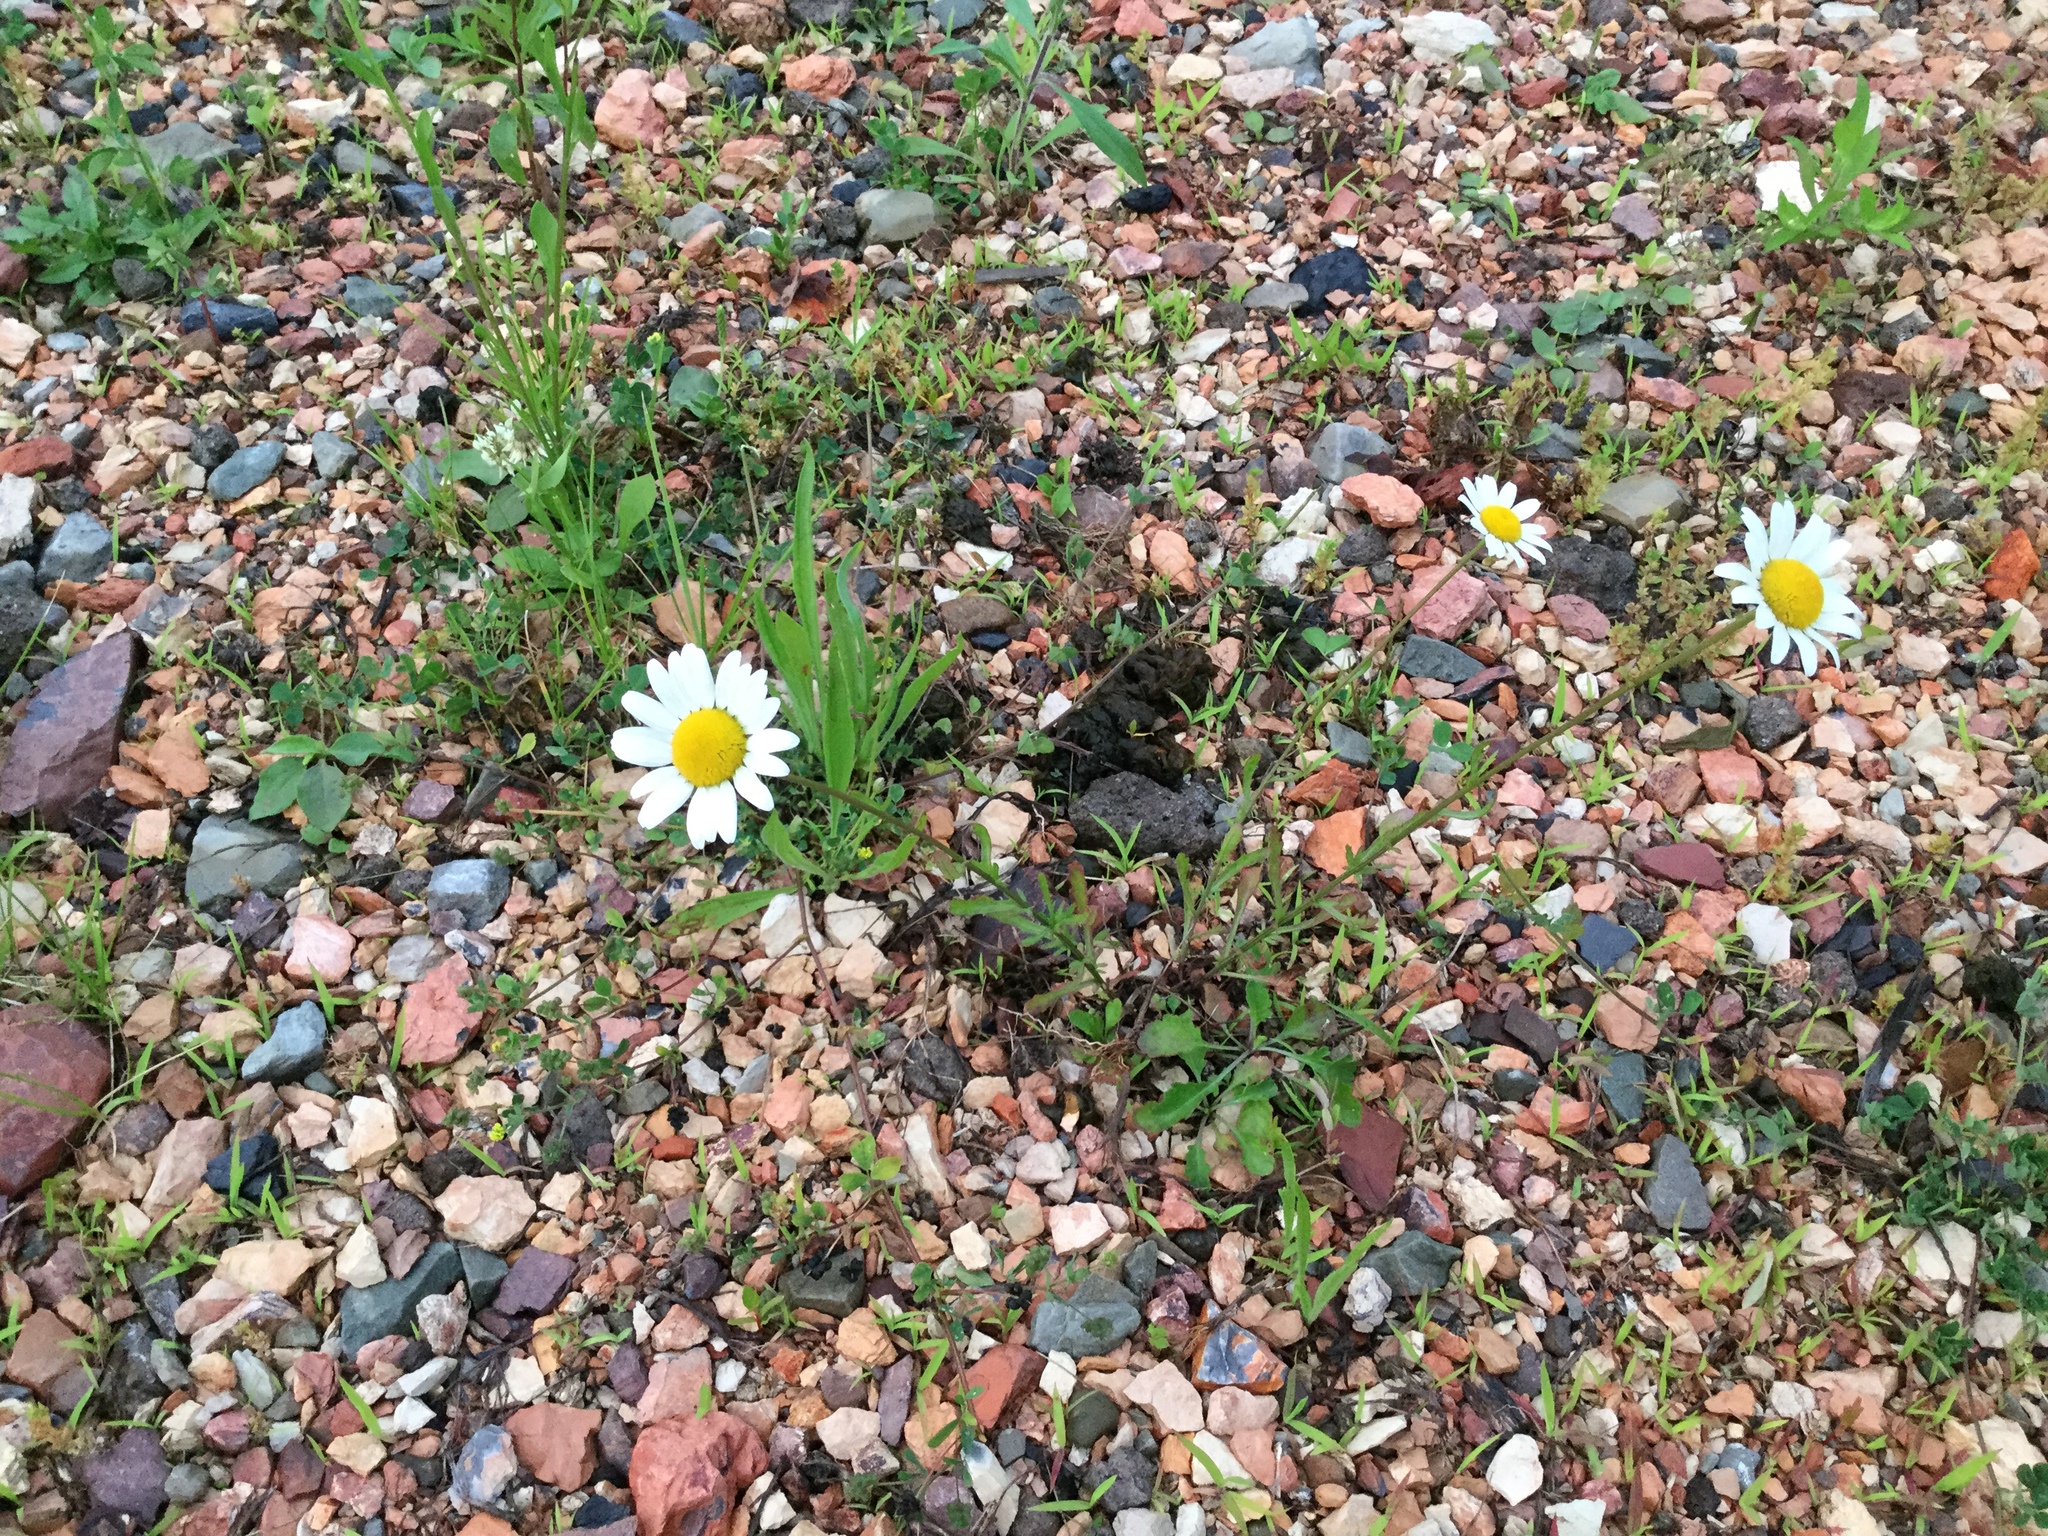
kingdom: Plantae
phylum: Tracheophyta
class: Magnoliopsida
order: Asterales
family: Asteraceae
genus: Leucanthemum
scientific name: Leucanthemum vulgare
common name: Oxeye daisy
